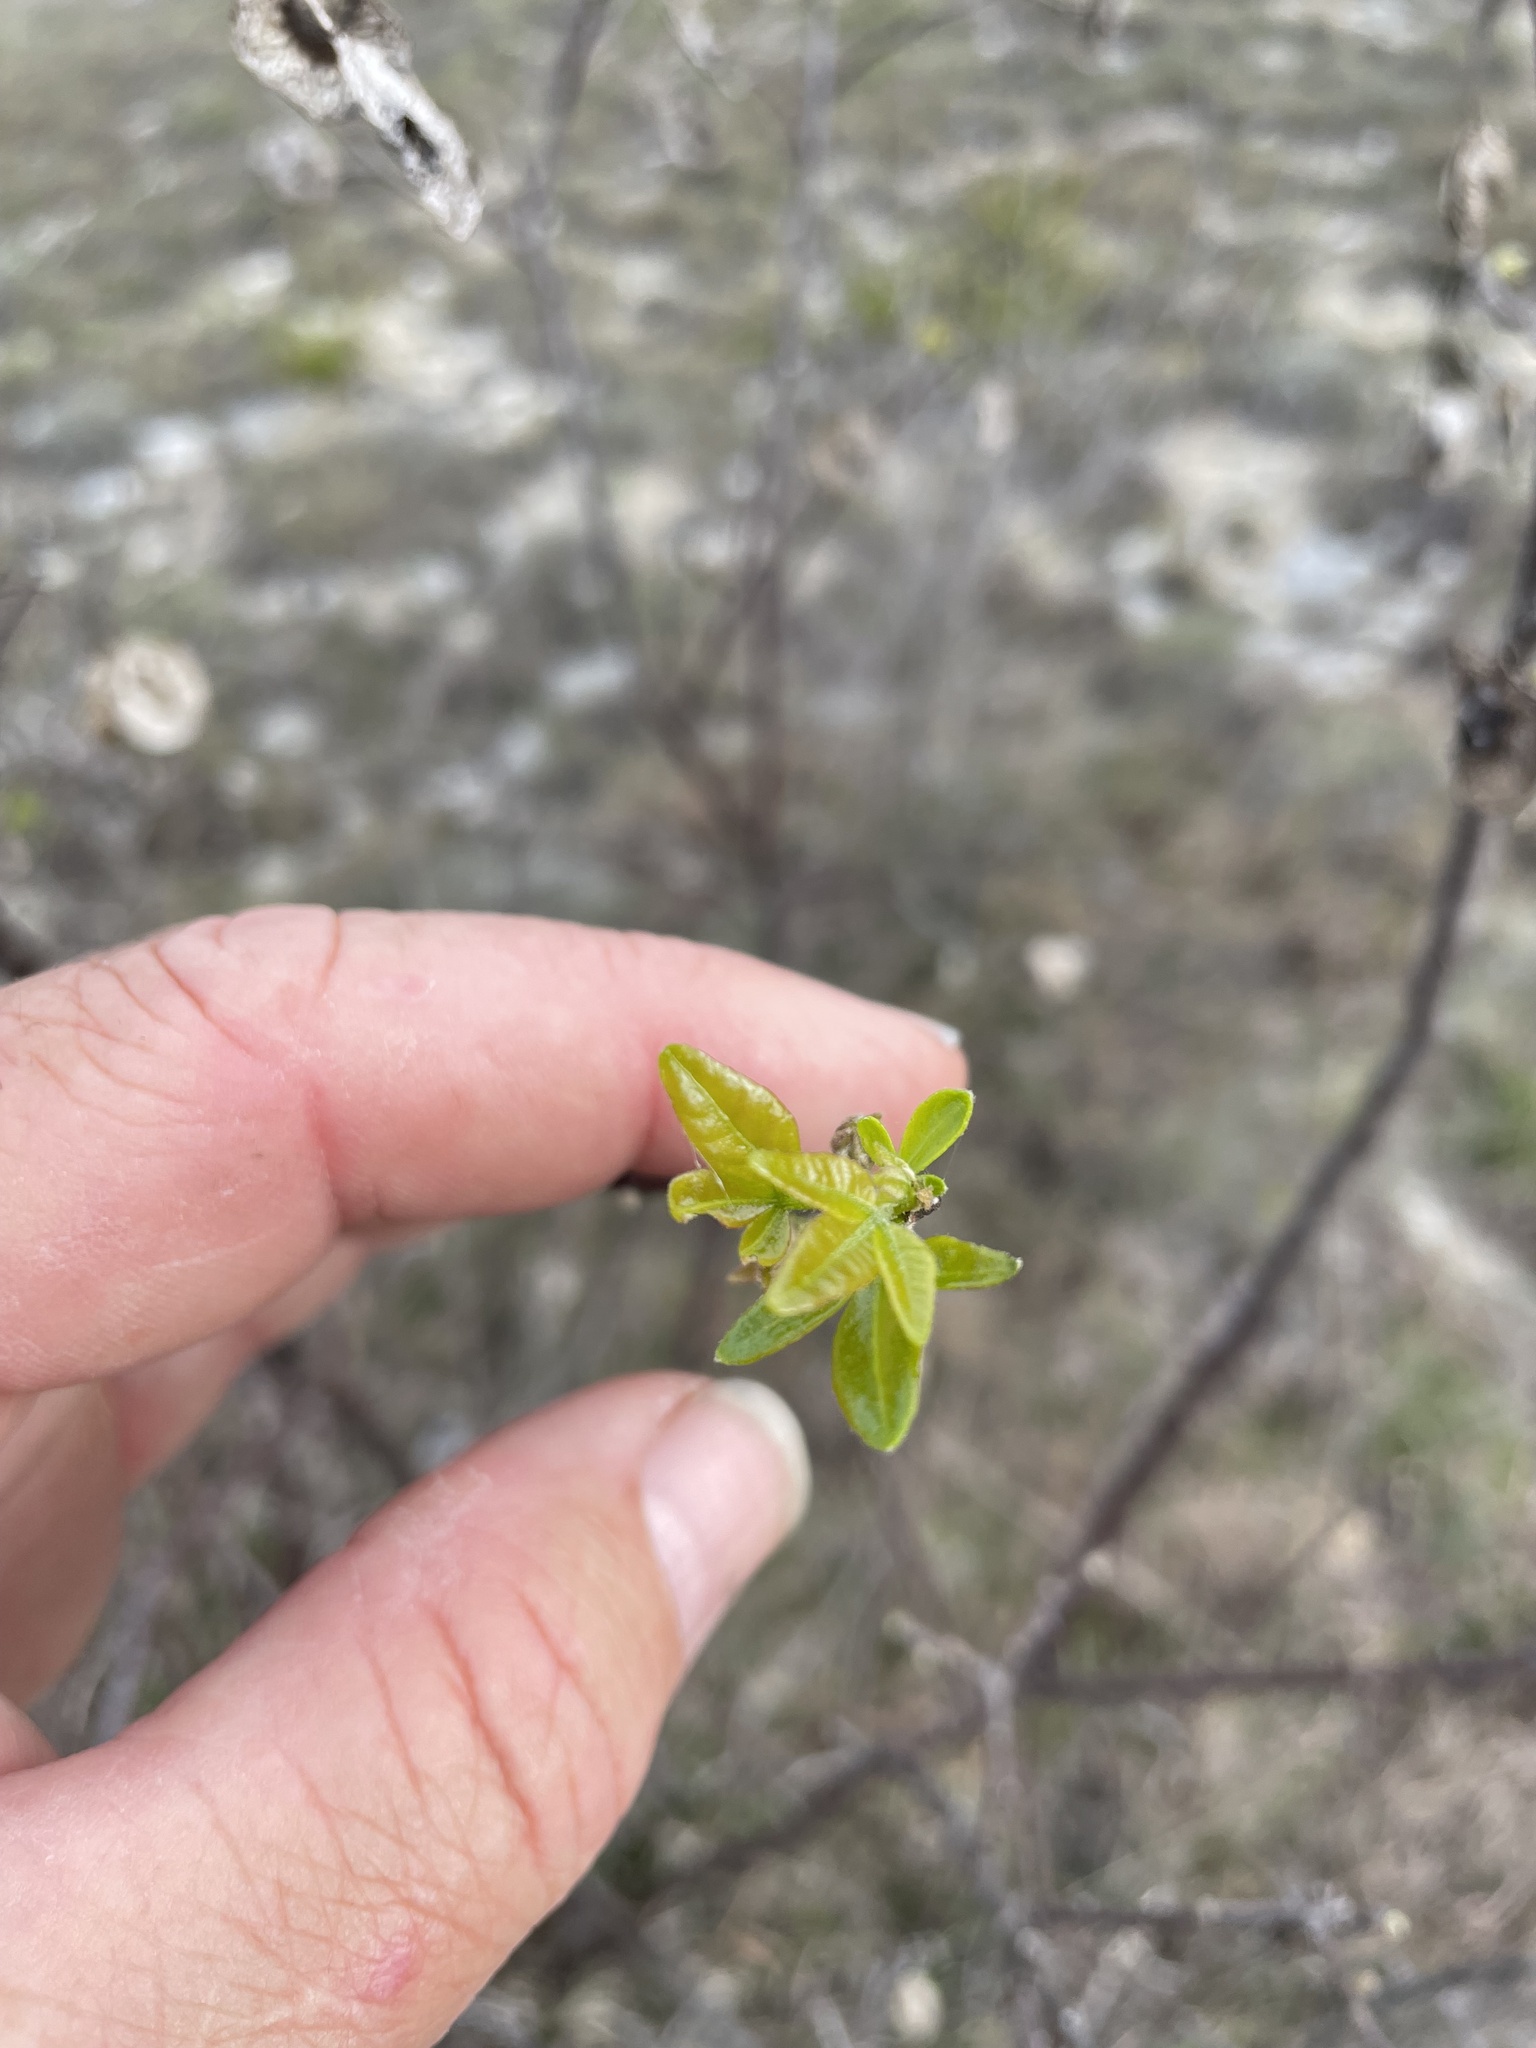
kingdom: Plantae
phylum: Tracheophyta
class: Magnoliopsida
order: Sapindales
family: Rutaceae
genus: Ptelea
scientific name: Ptelea trifoliata
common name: Common hop-tree
